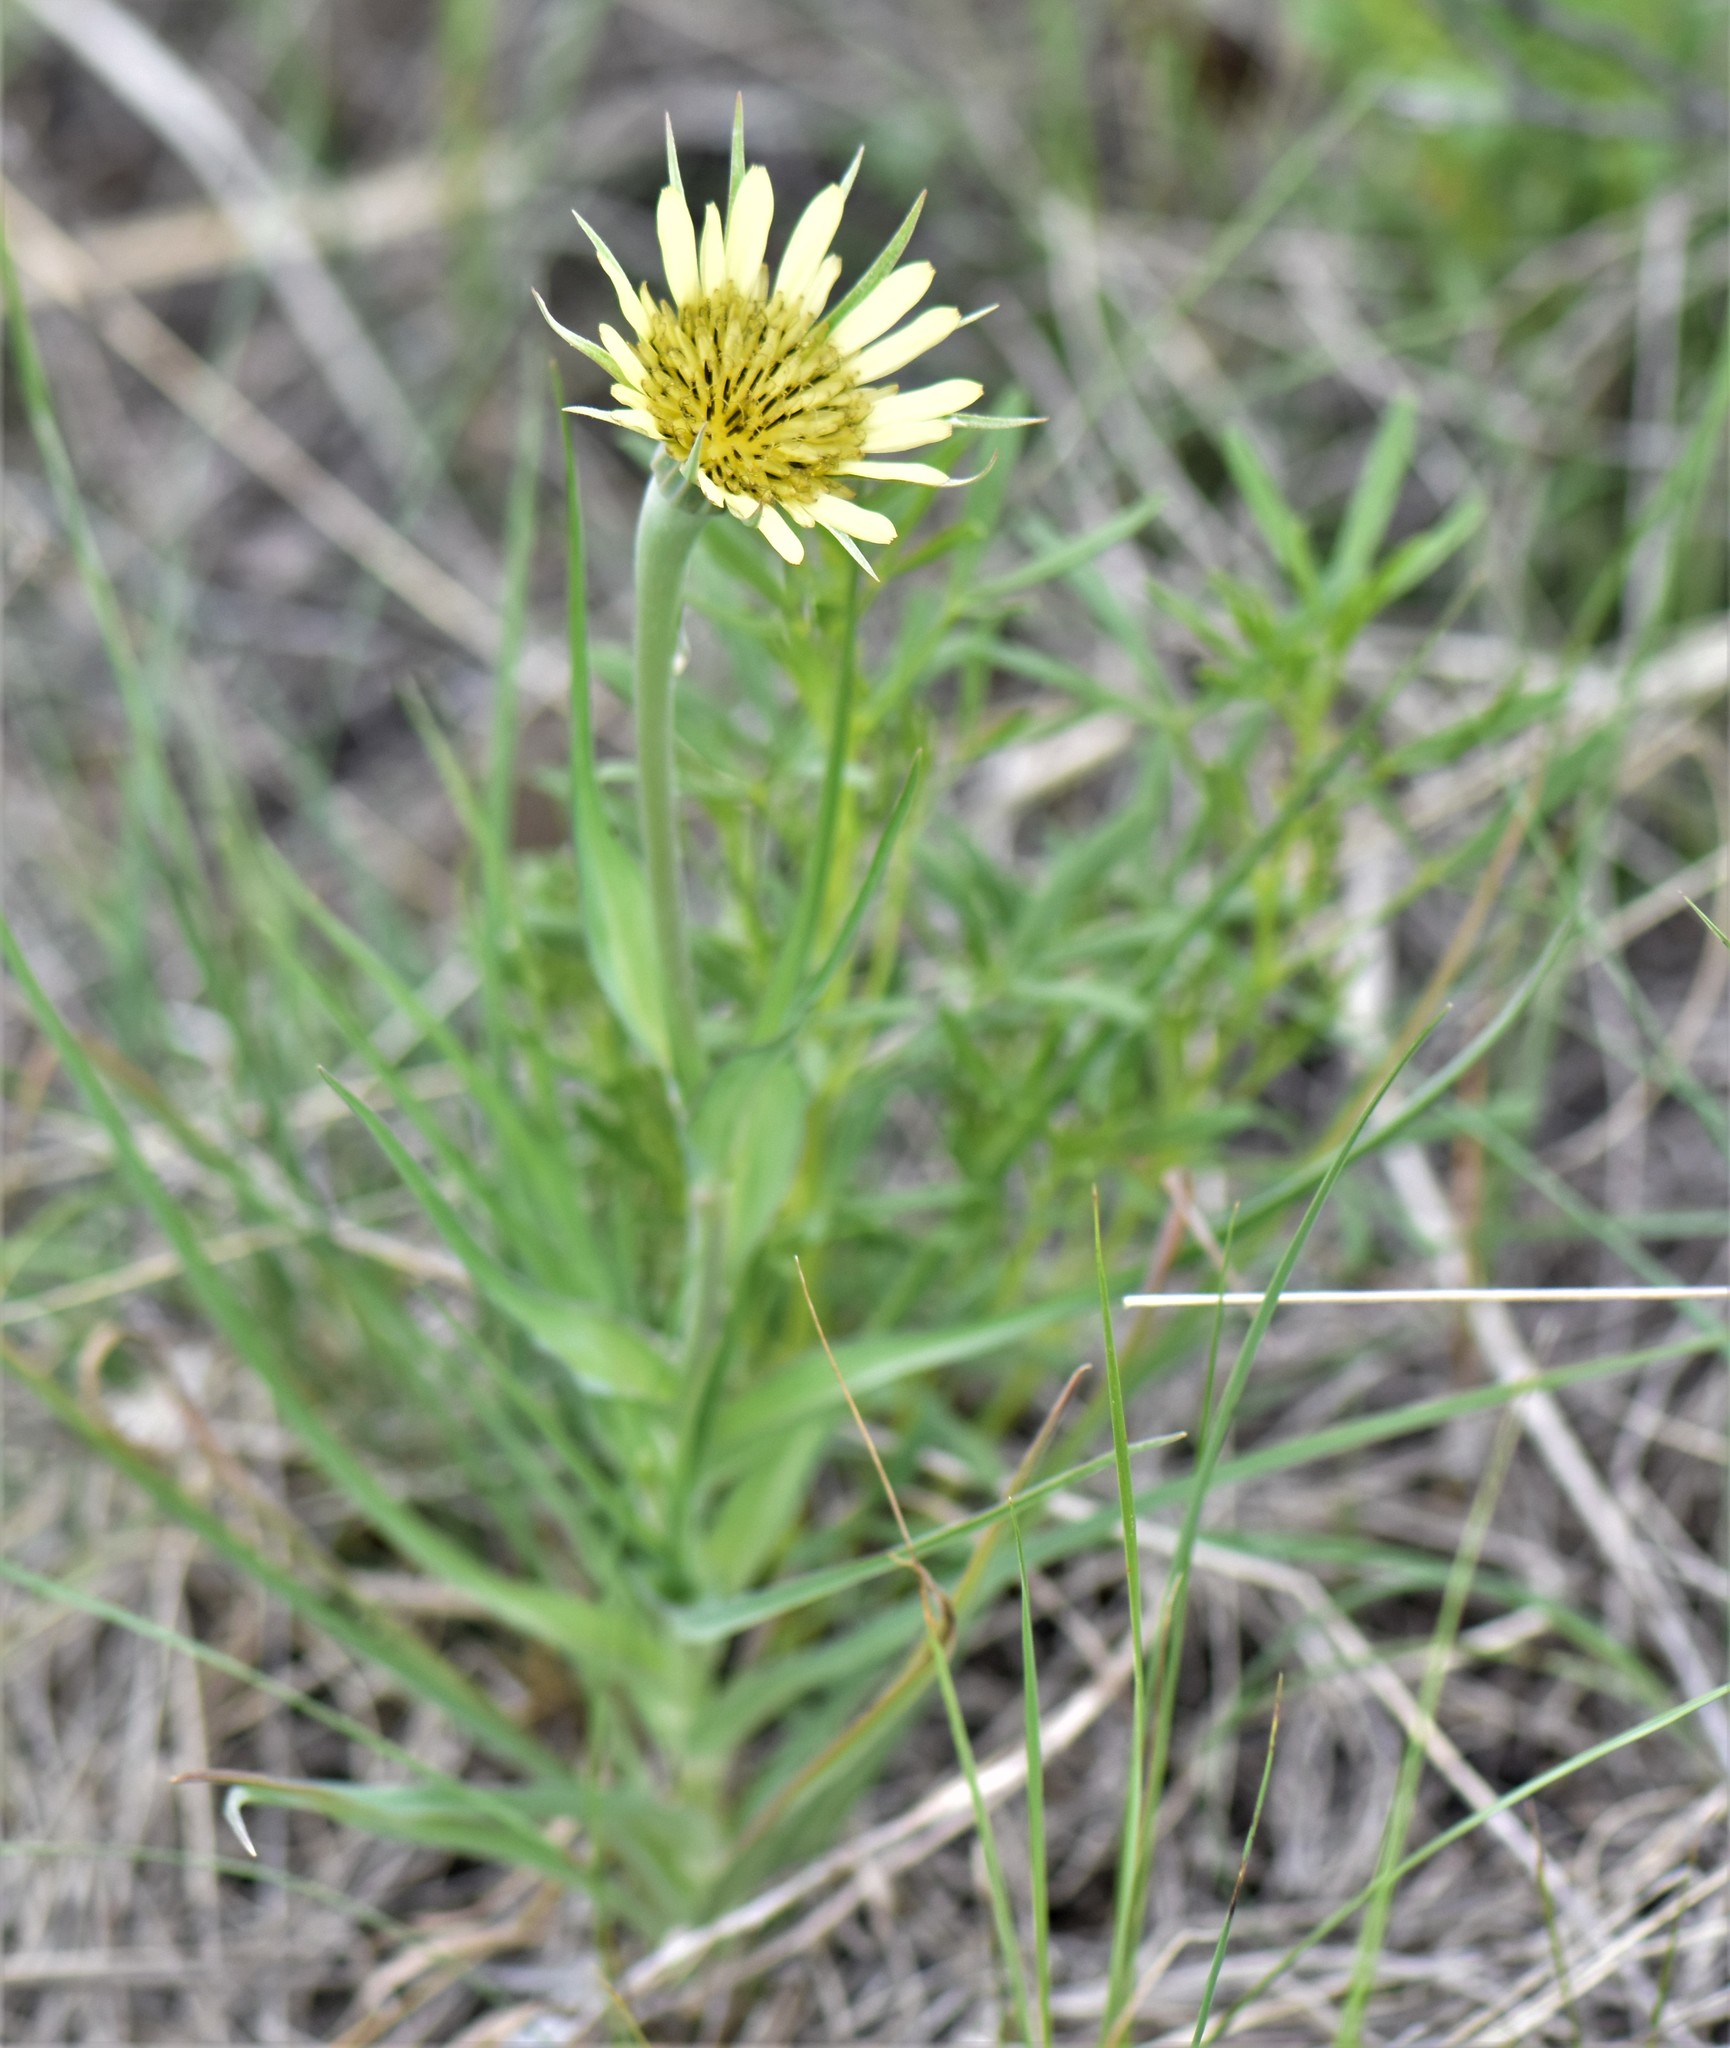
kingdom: Plantae
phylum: Tracheophyta
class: Magnoliopsida
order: Asterales
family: Asteraceae
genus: Tragopogon
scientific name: Tragopogon dubius
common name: Yellow salsify
